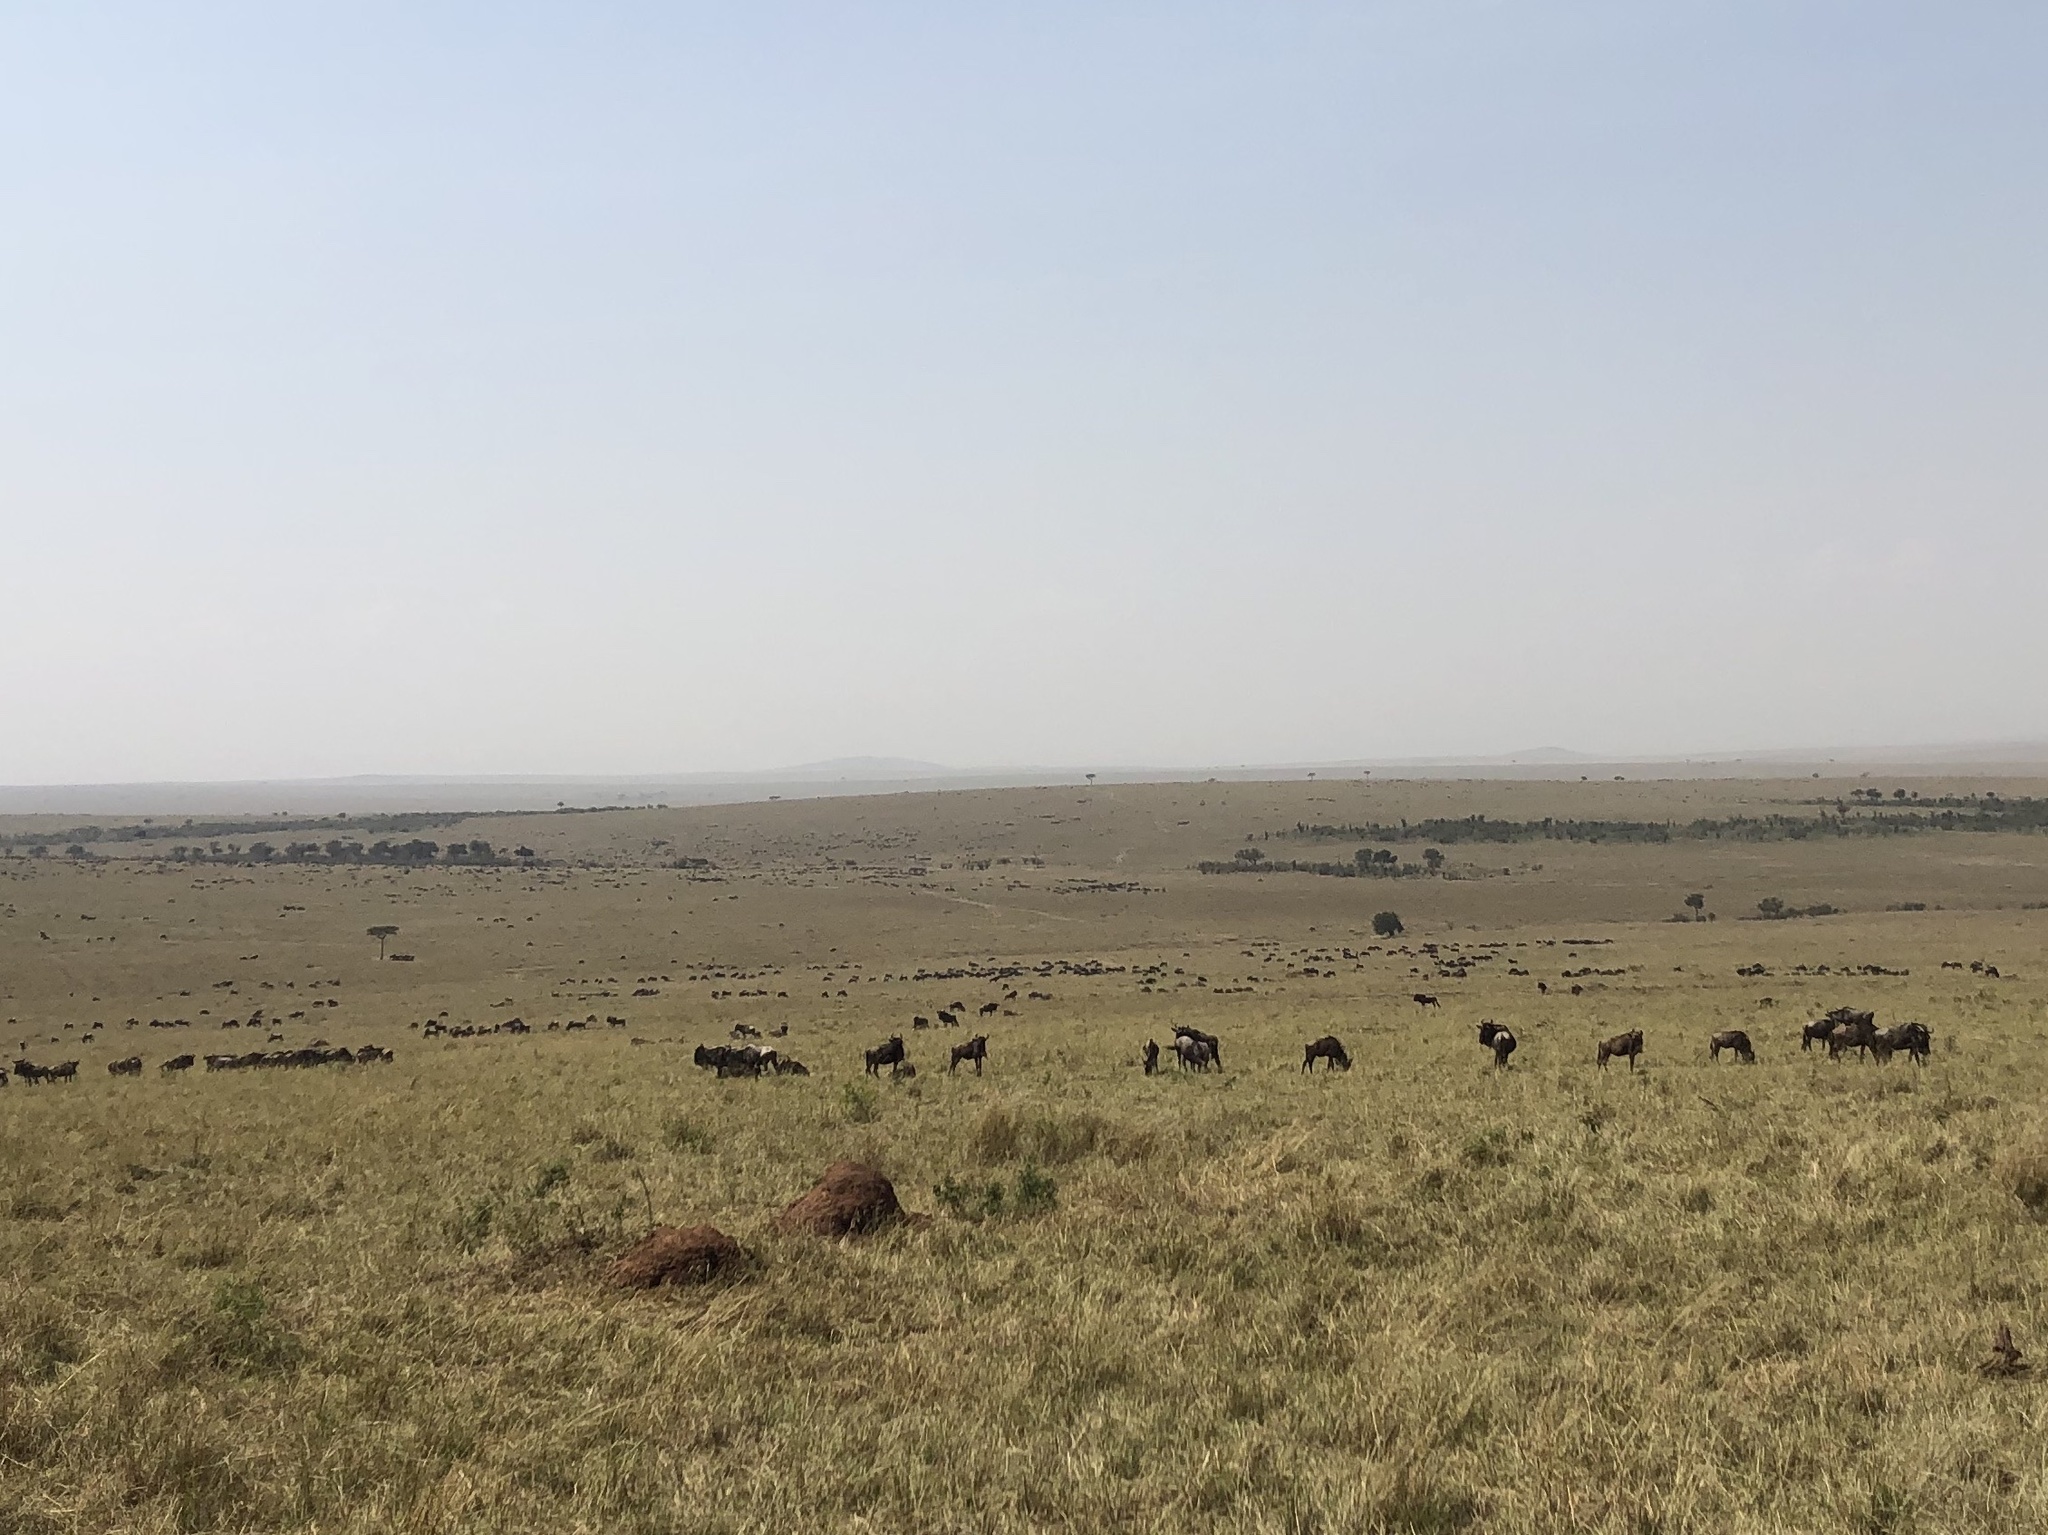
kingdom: Animalia
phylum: Chordata
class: Mammalia
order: Artiodactyla
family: Bovidae
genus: Connochaetes
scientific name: Connochaetes taurinus
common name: Blue wildebeest
